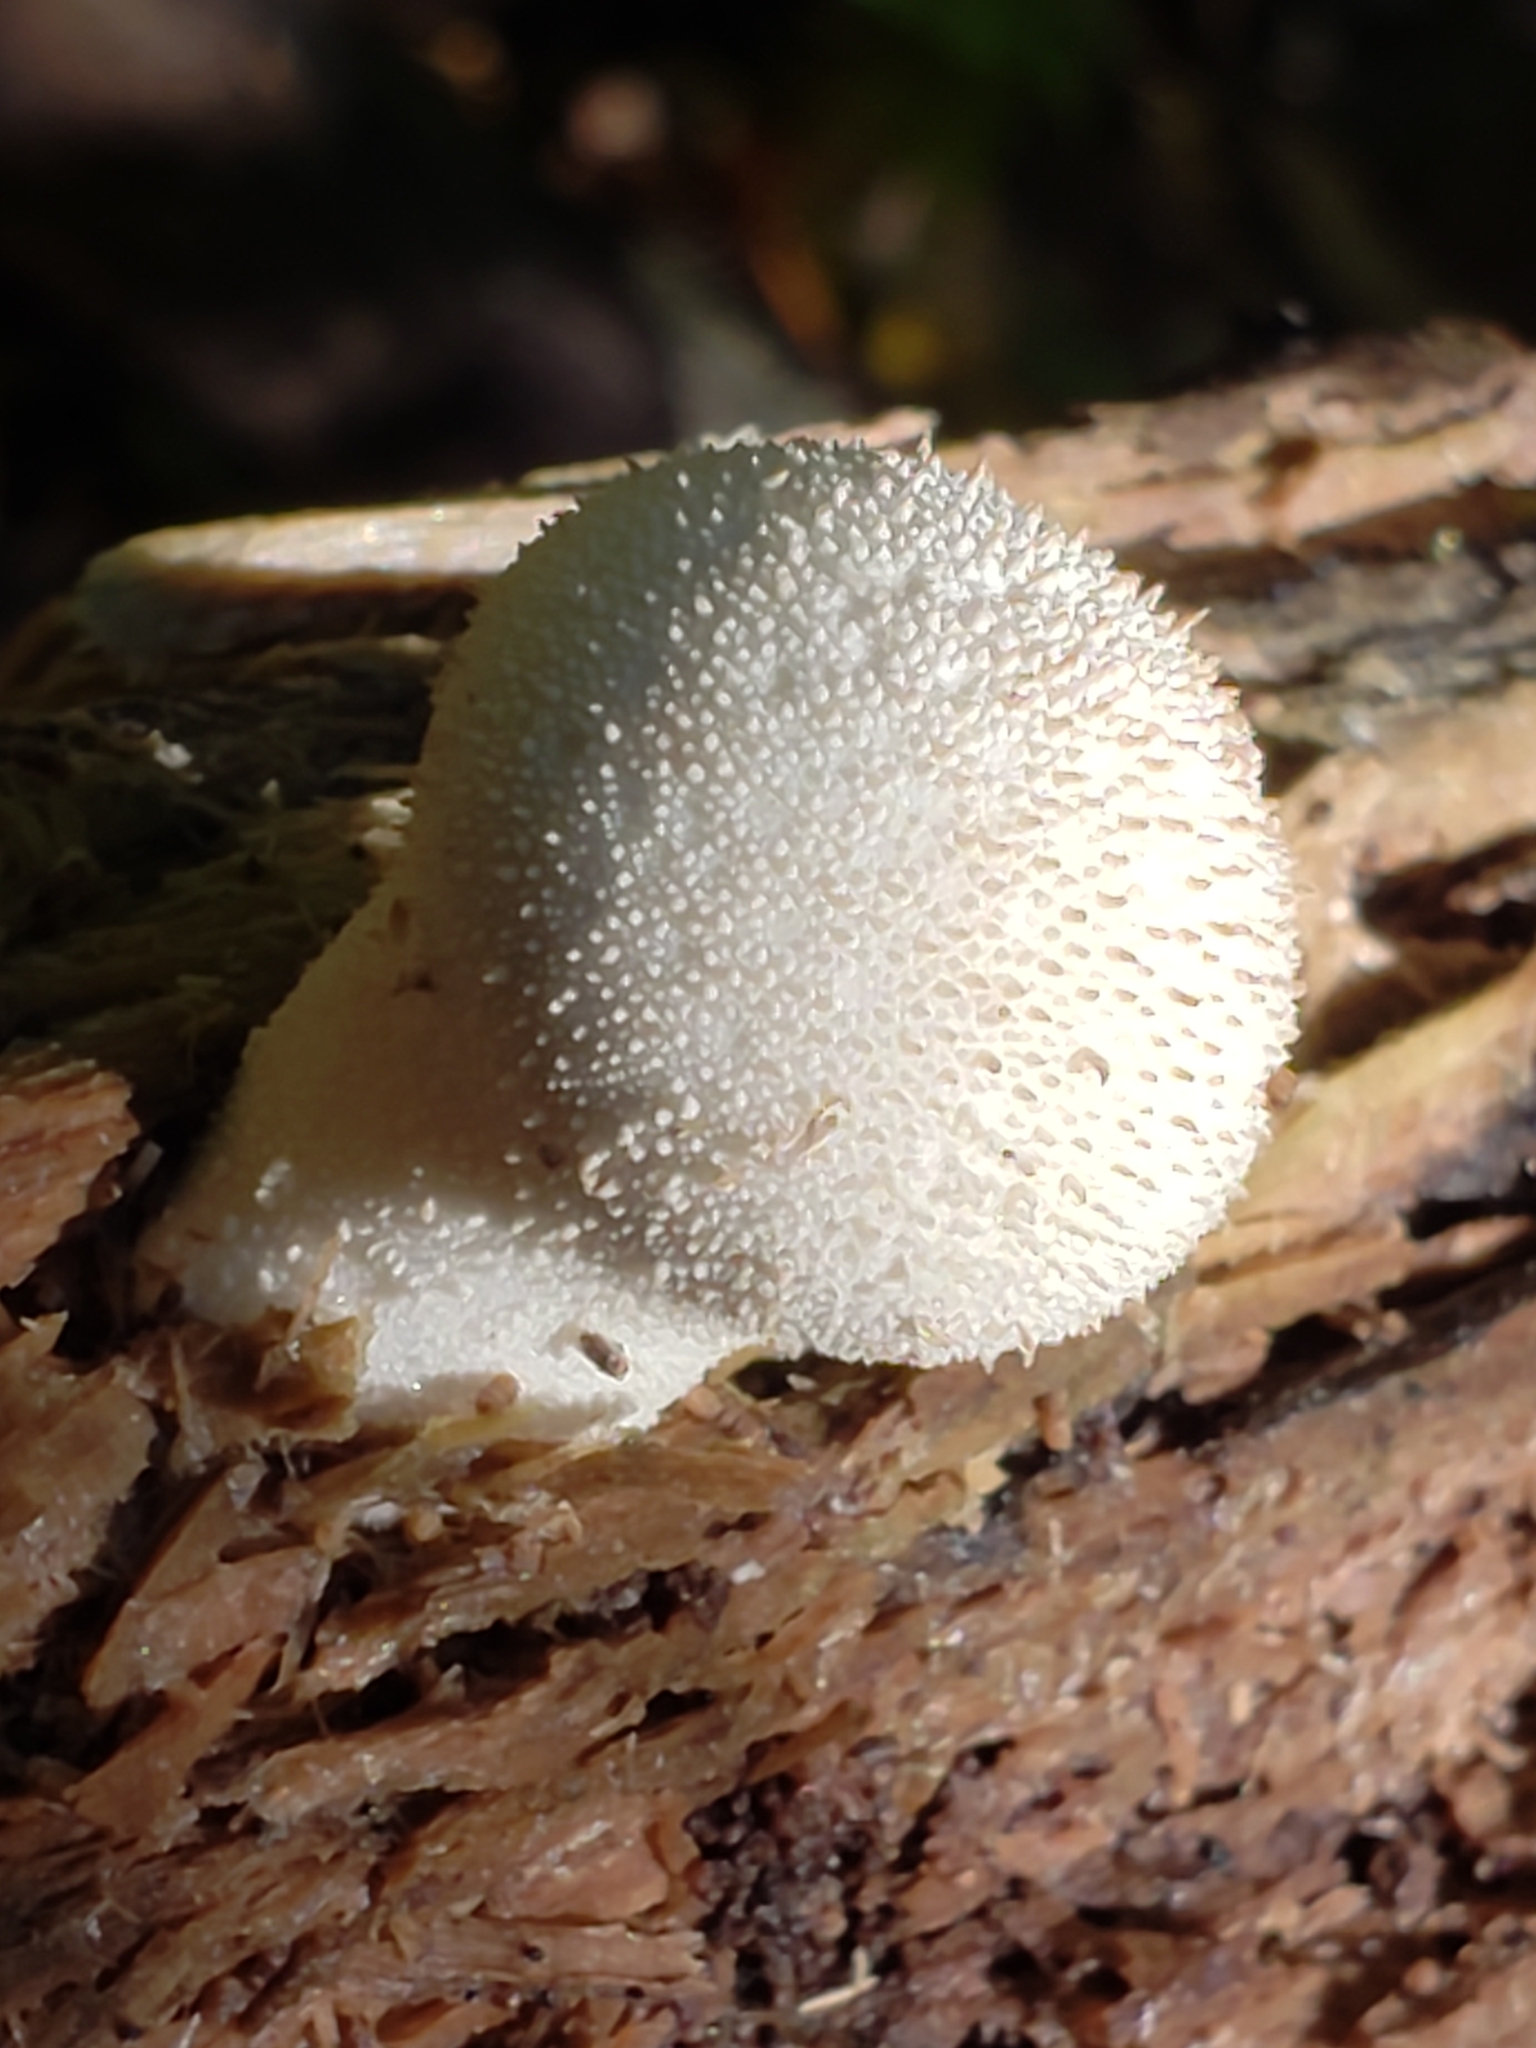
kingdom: Fungi
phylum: Basidiomycota
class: Agaricomycetes
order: Agaricales
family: Lycoperdaceae
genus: Lycoperdon
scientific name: Lycoperdon perlatum
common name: Common puffball
